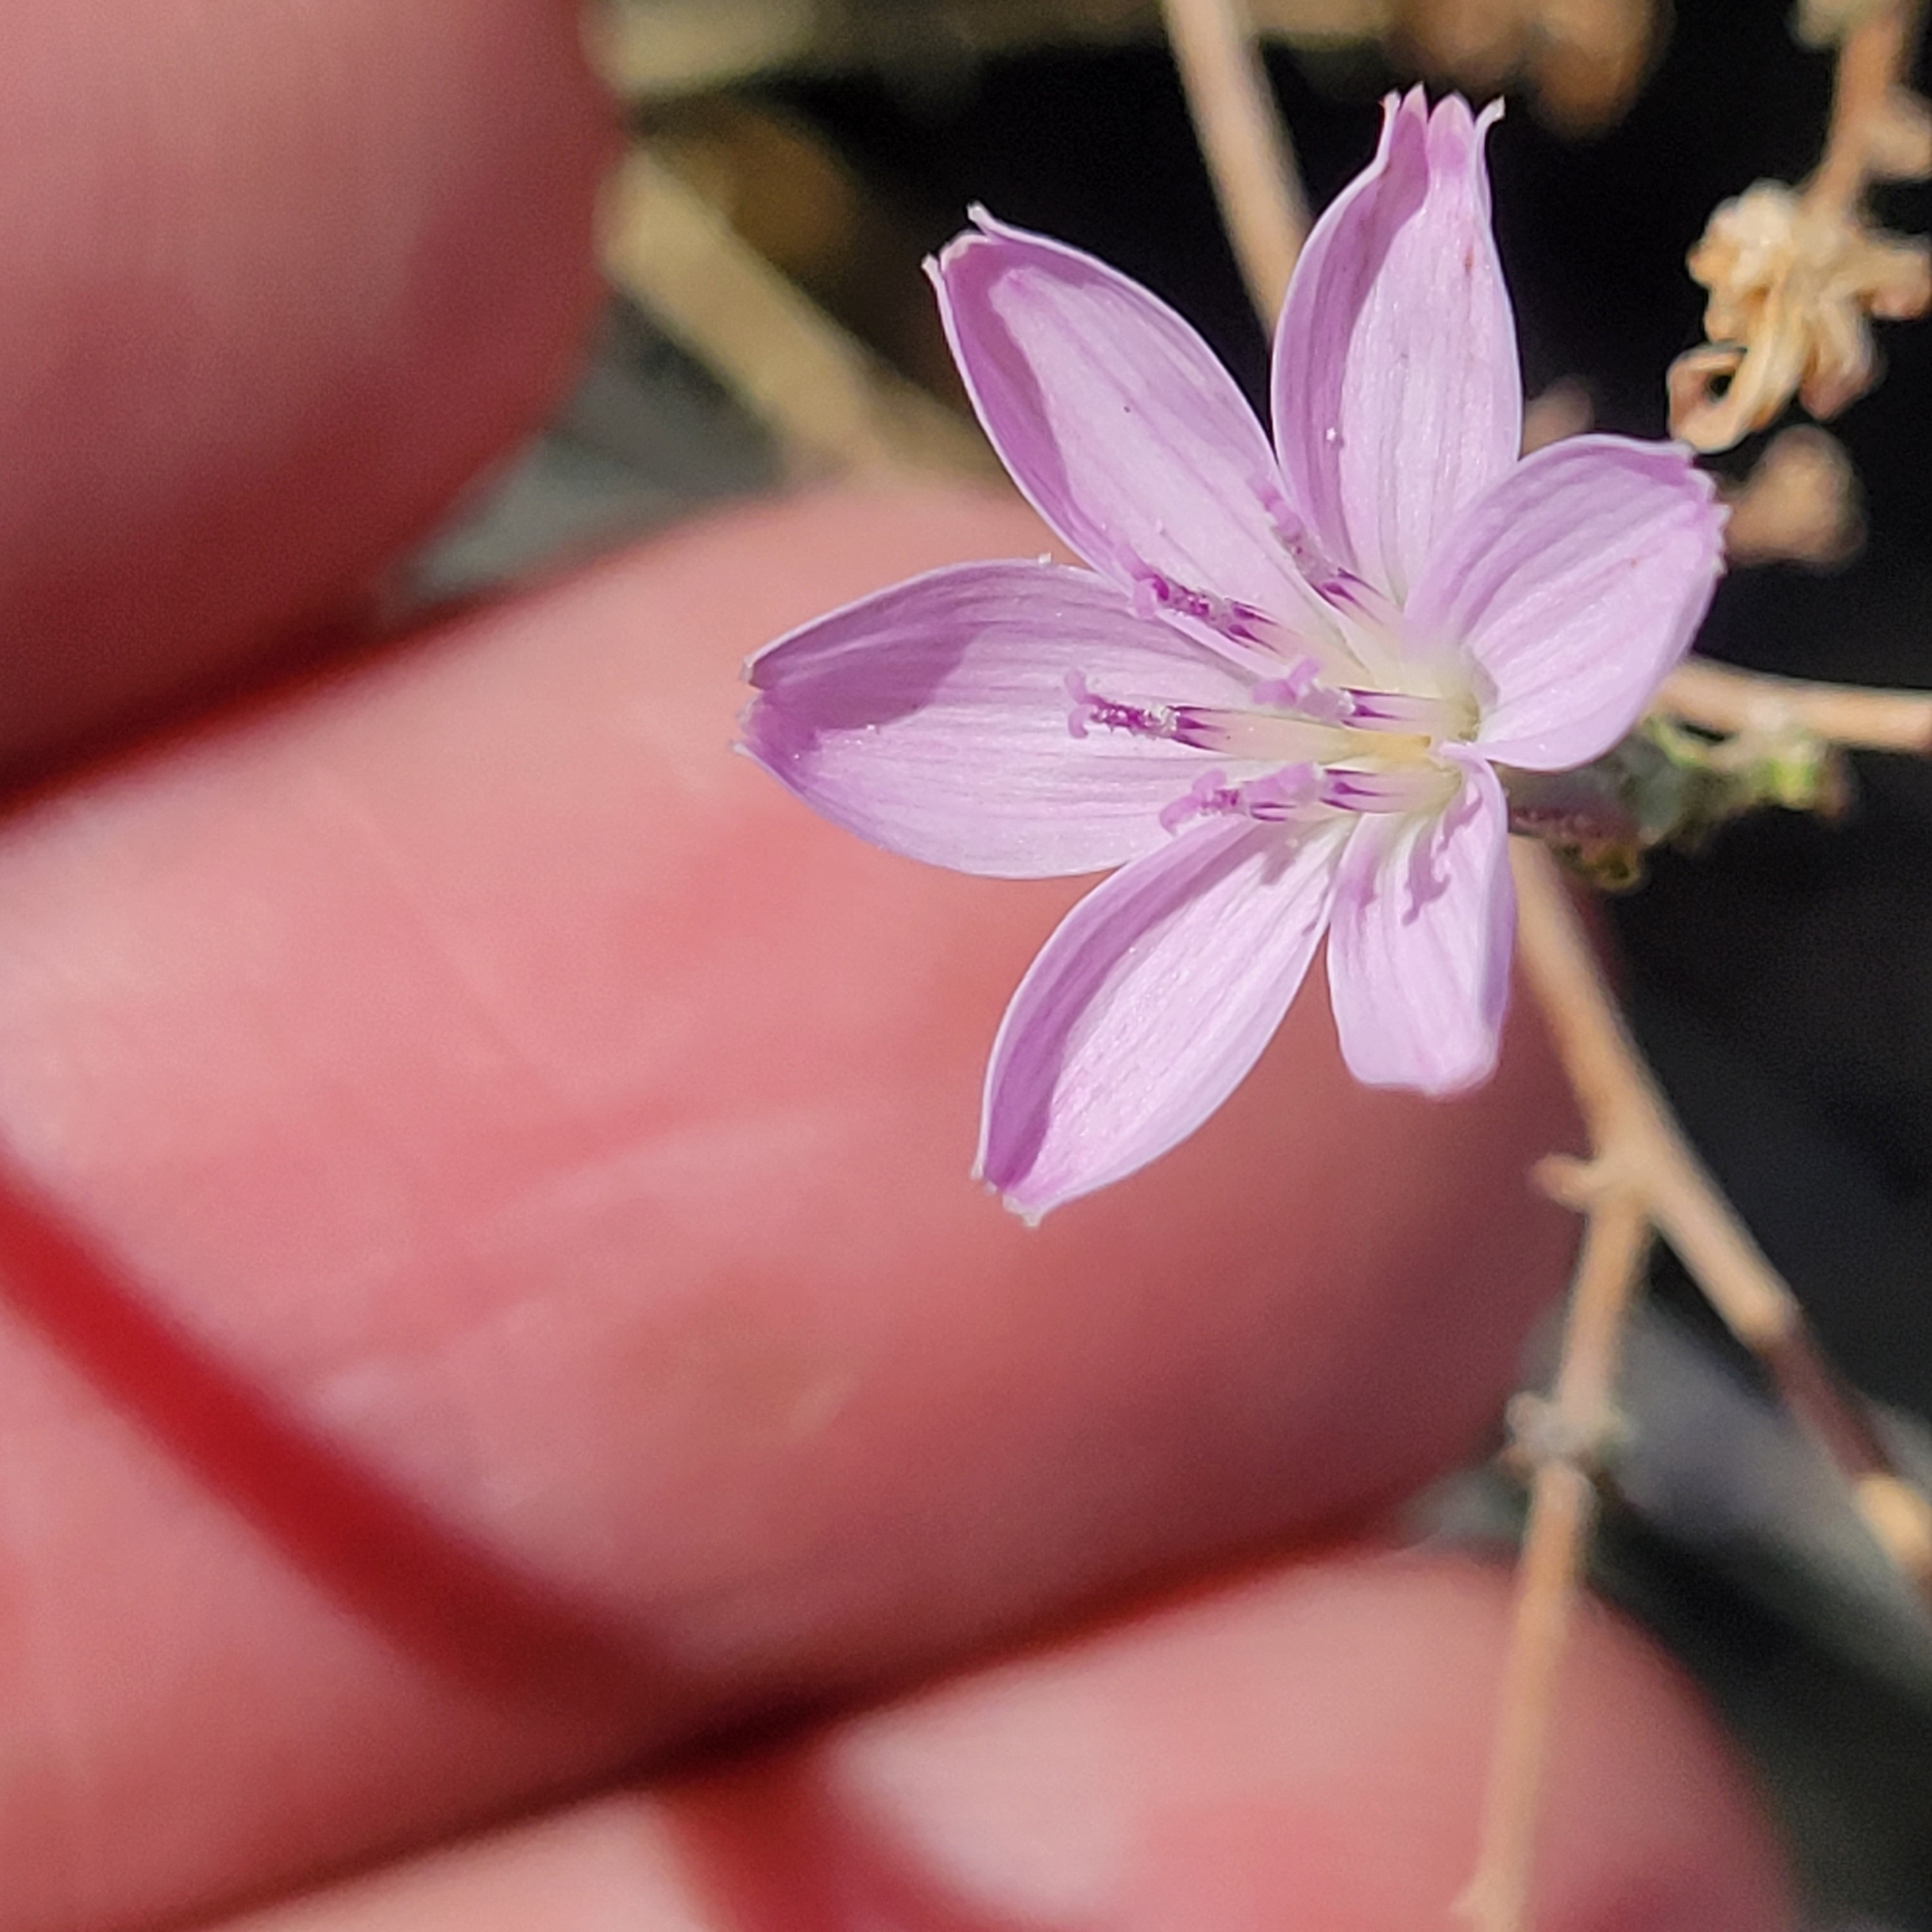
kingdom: Plantae
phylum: Tracheophyta
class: Magnoliopsida
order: Asterales
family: Asteraceae
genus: Stephanomeria
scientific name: Stephanomeria exigua
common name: Small wirelettuce
